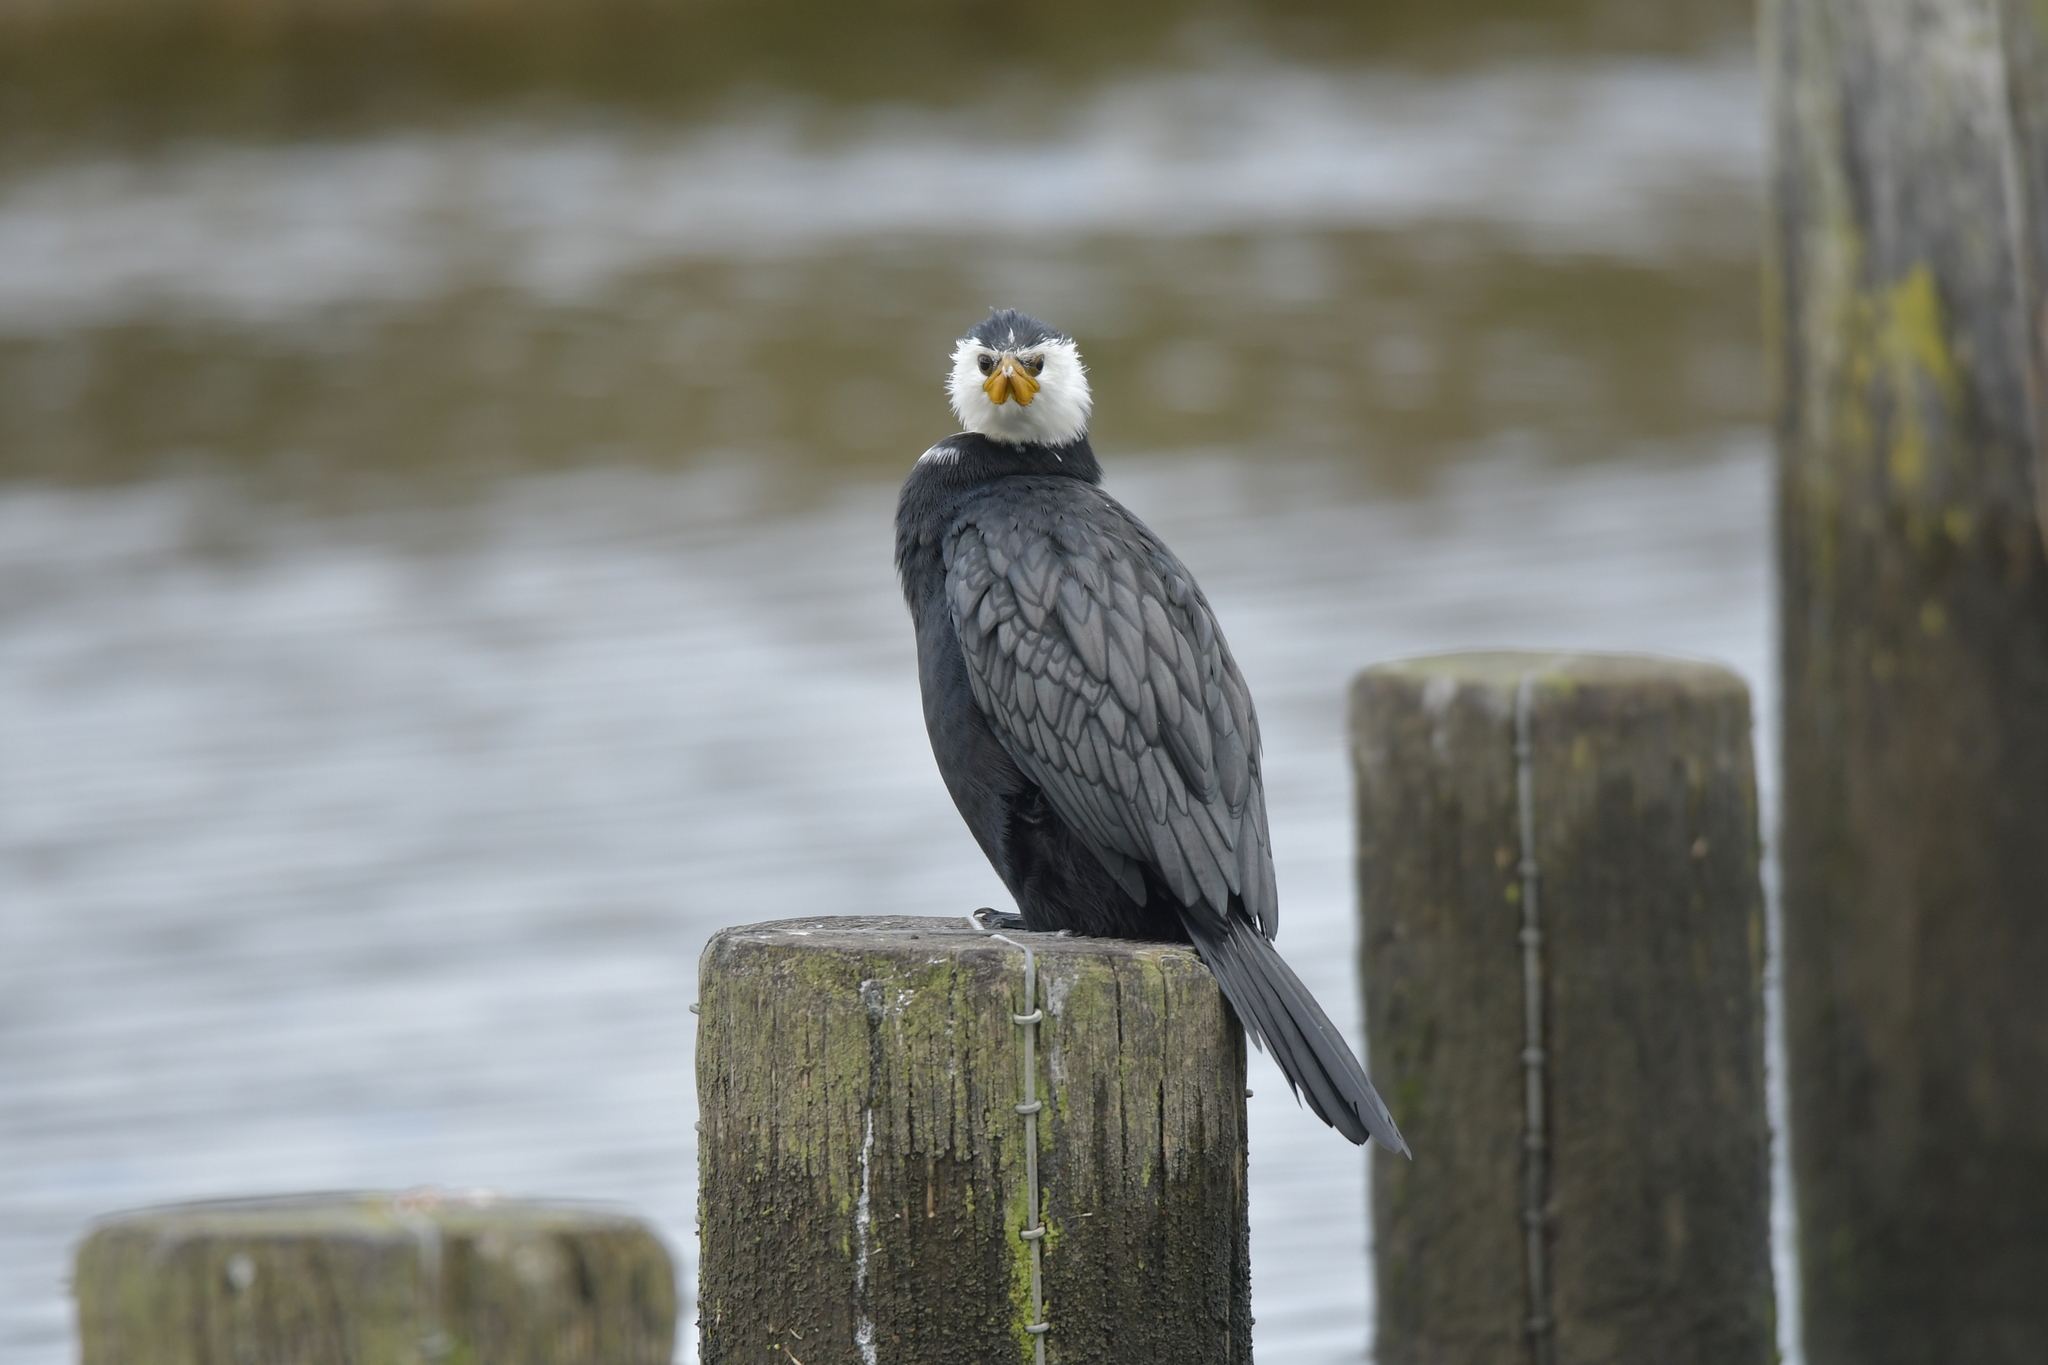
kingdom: Animalia
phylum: Chordata
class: Aves
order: Suliformes
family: Phalacrocoracidae
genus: Microcarbo
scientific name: Microcarbo melanoleucos
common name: Little pied cormorant
